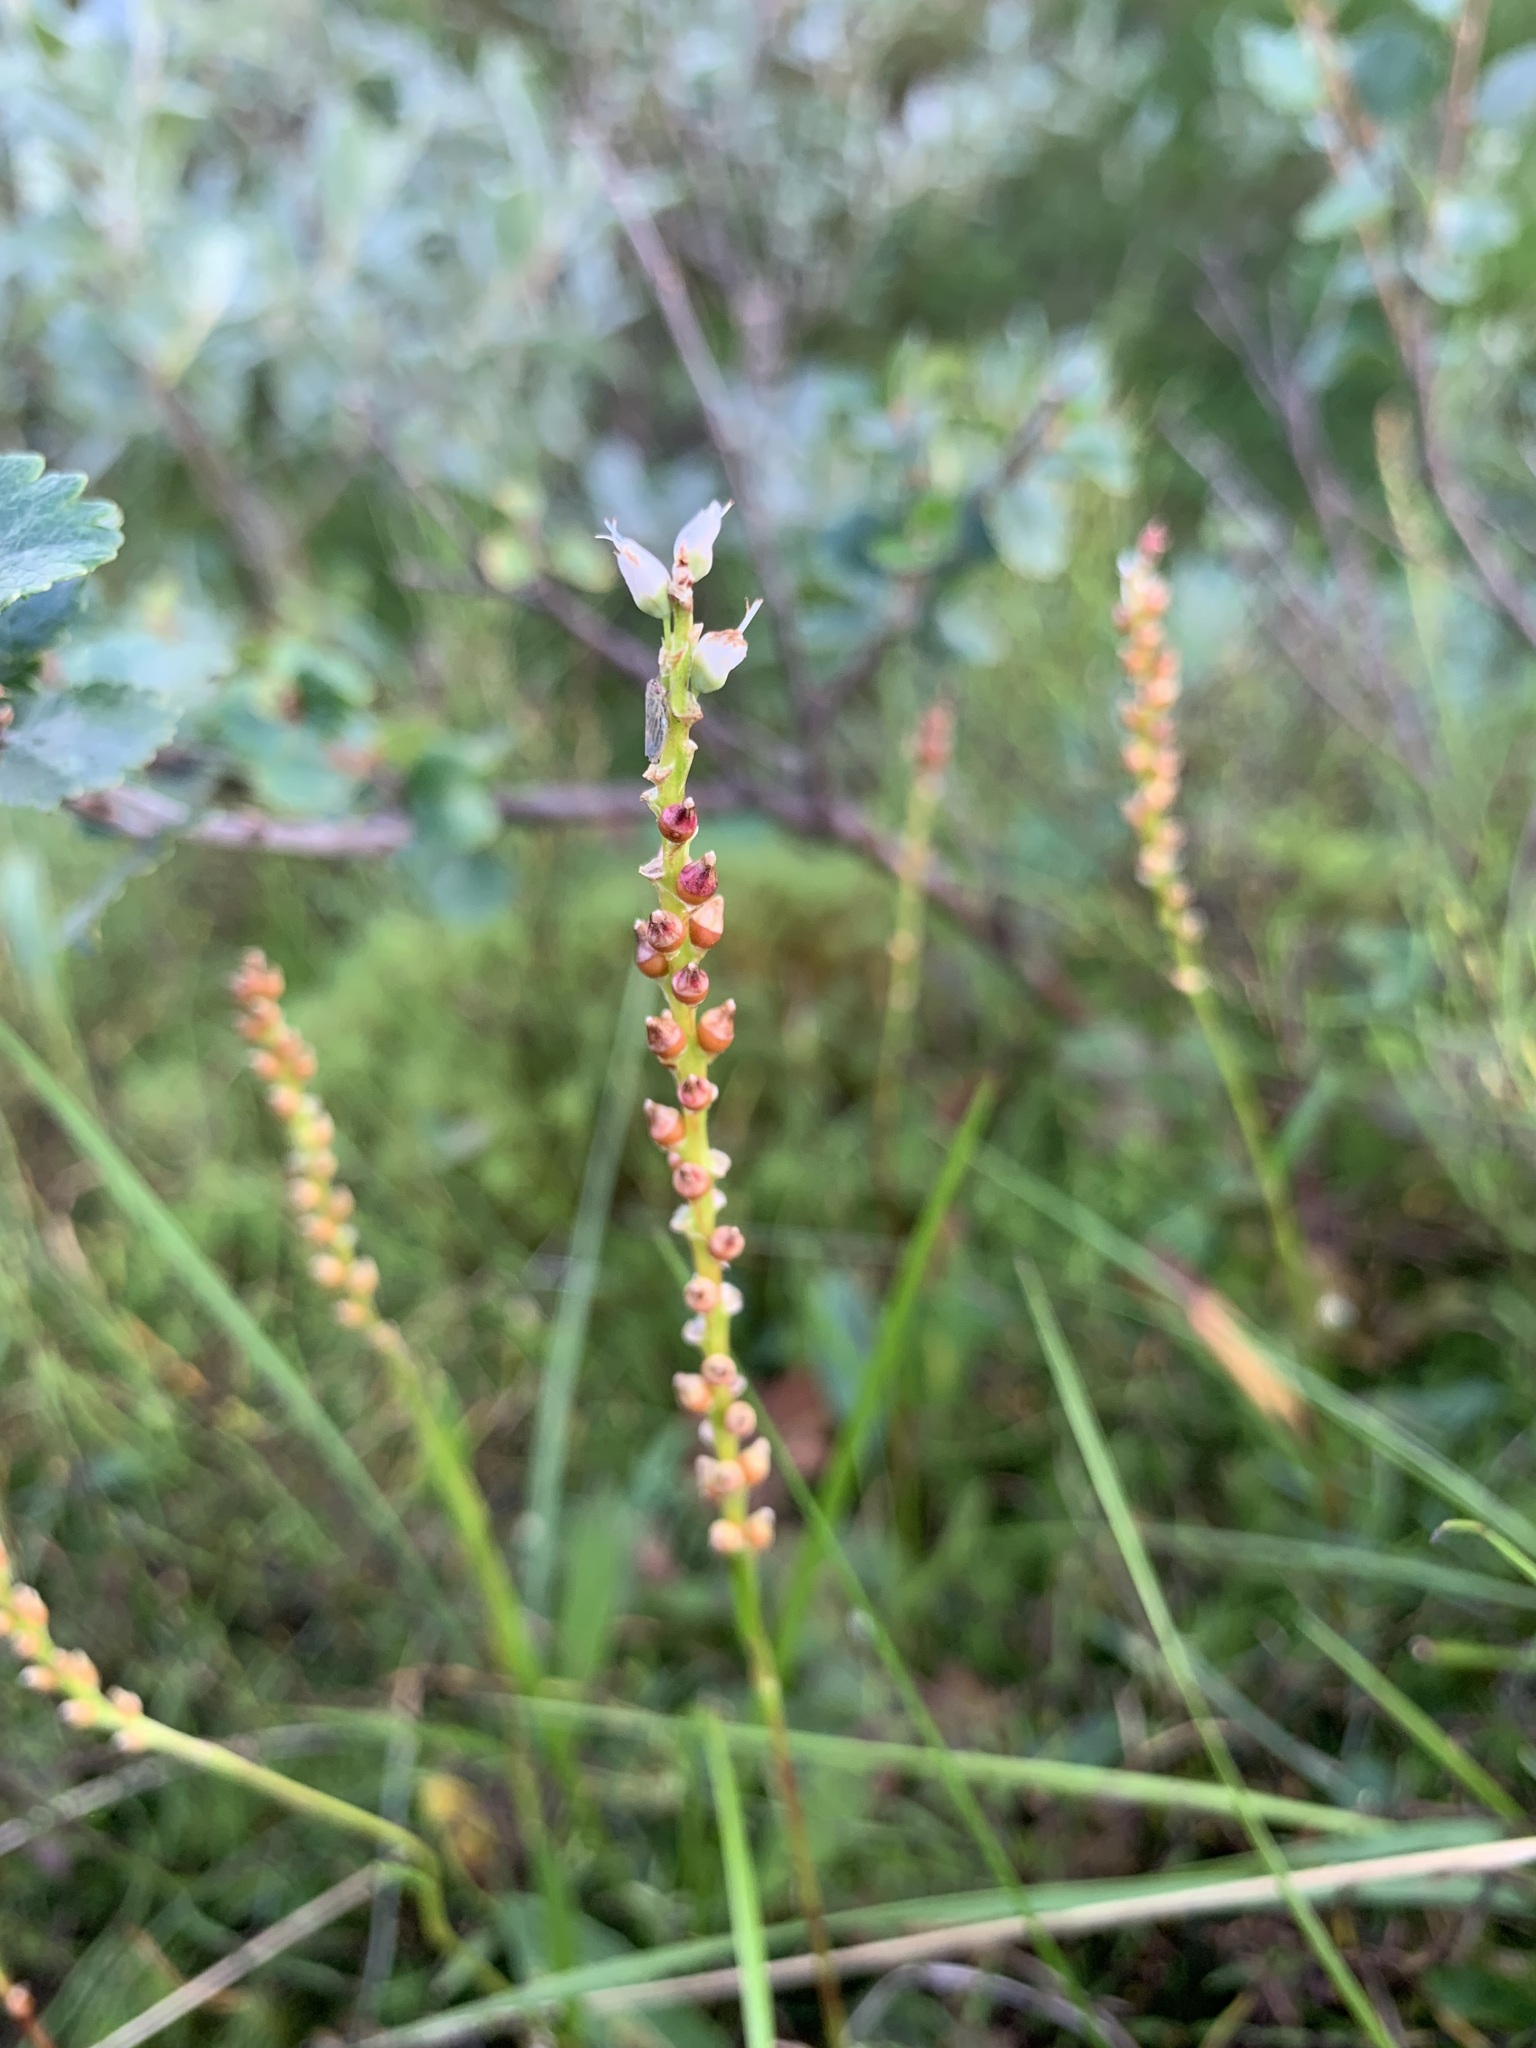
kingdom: Plantae
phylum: Tracheophyta
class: Magnoliopsida
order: Caryophyllales
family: Polygonaceae
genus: Bistorta
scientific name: Bistorta vivipara
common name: Alpine bistort
